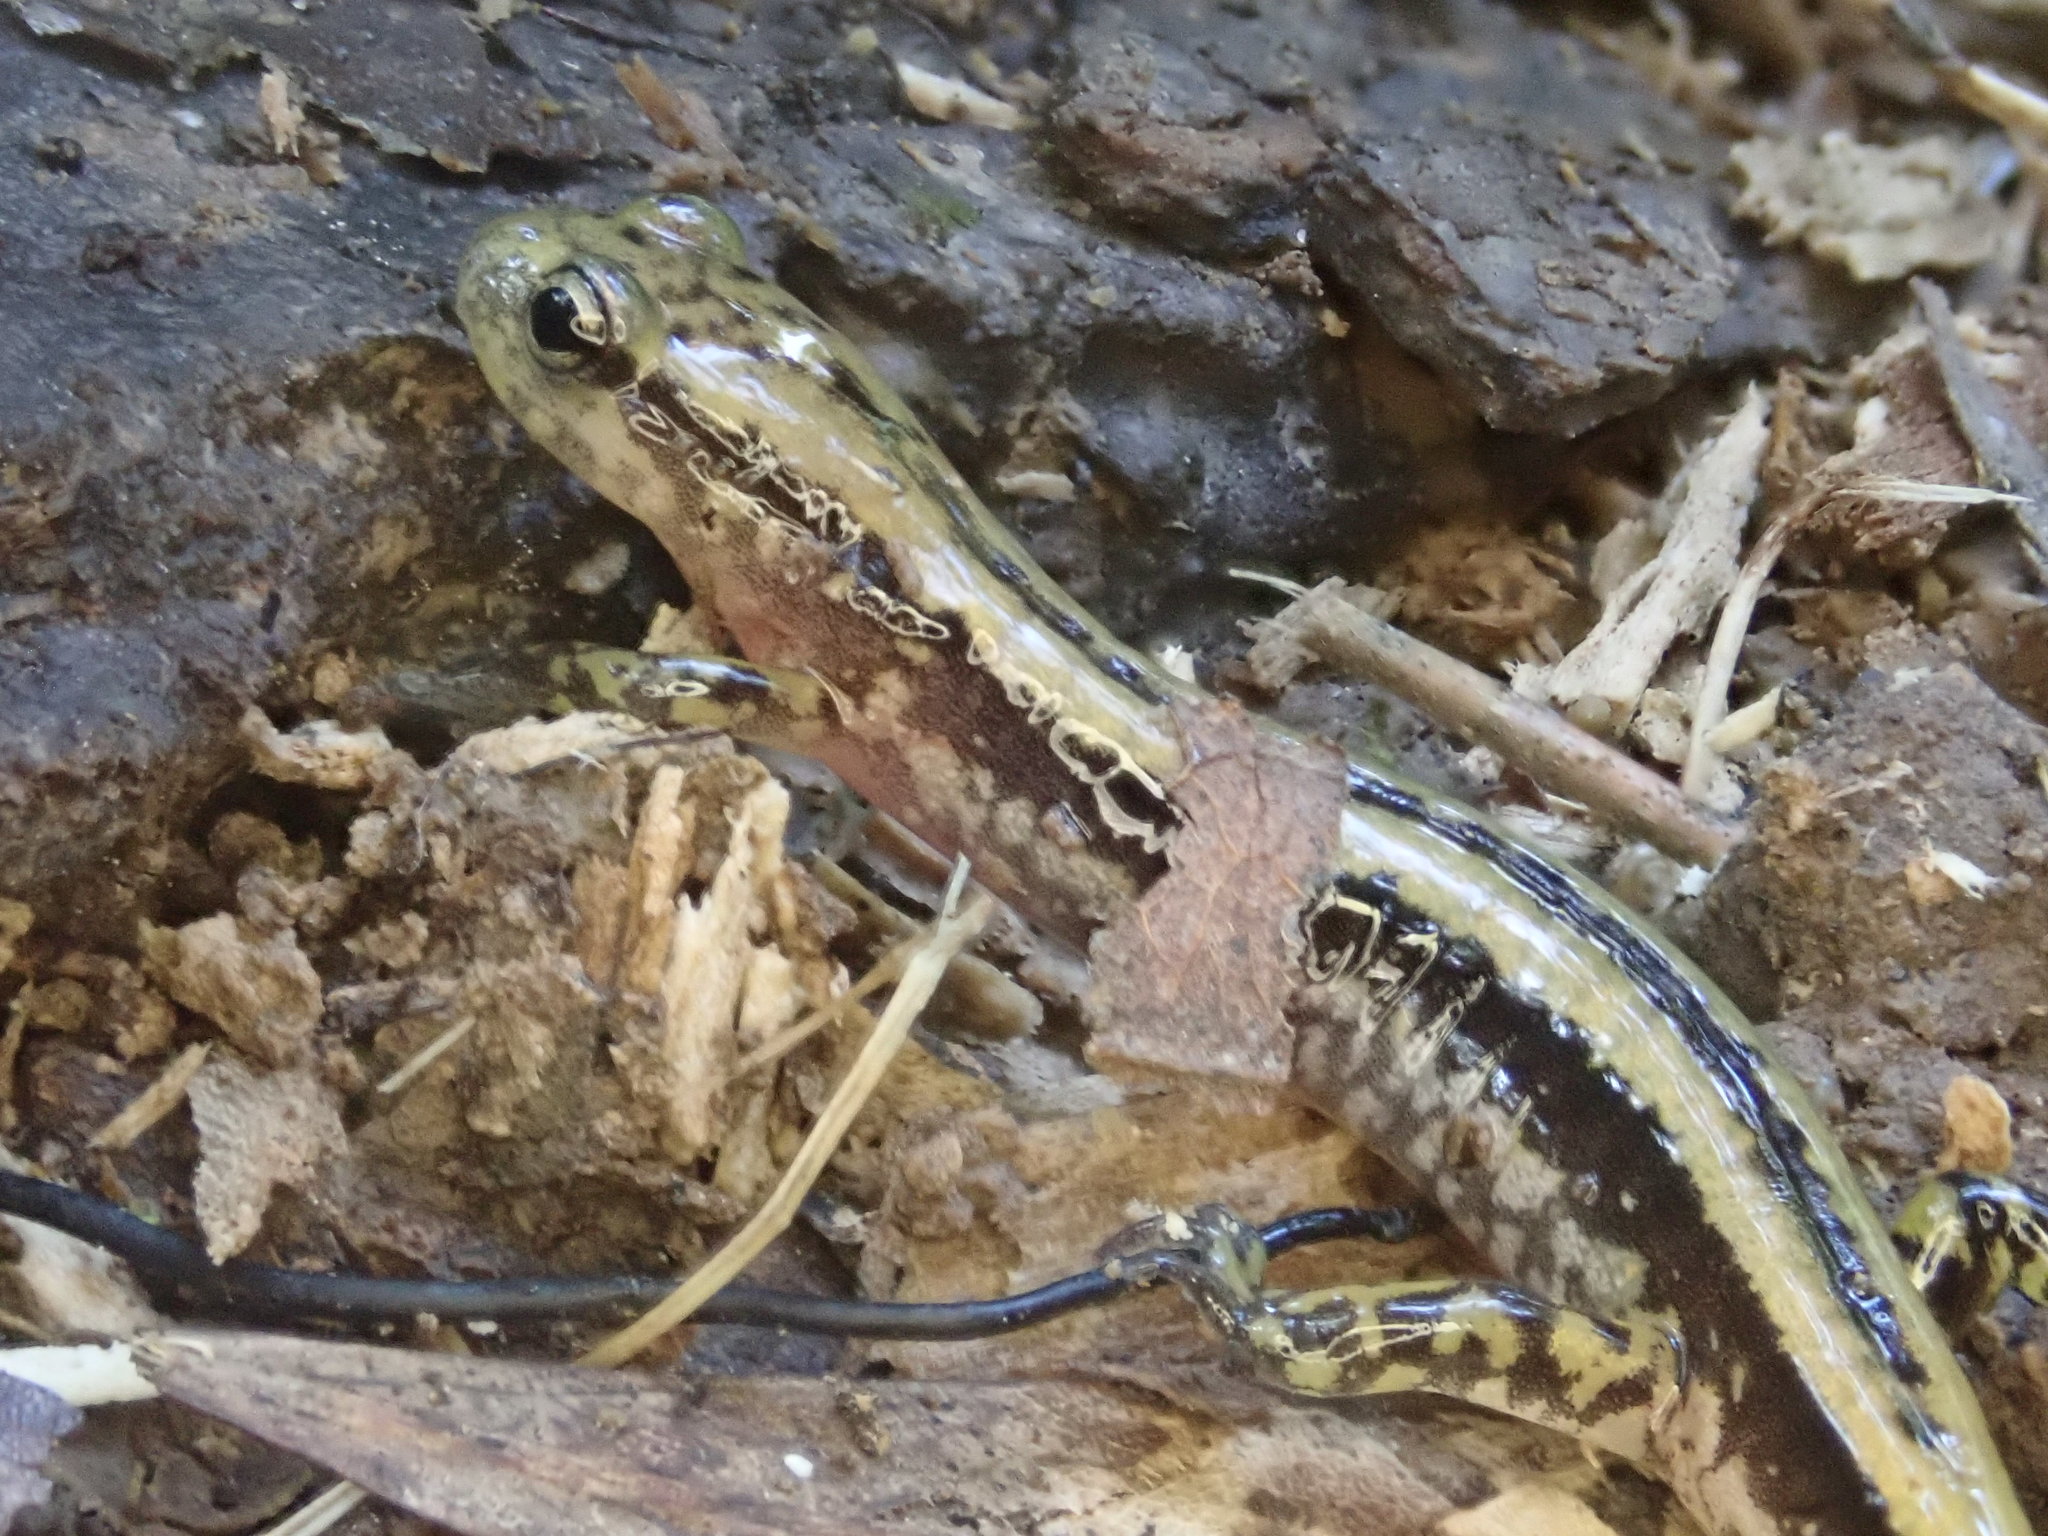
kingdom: Animalia
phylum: Chordata
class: Amphibia
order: Caudata
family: Plethodontidae
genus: Eurycea
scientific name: Eurycea guttolineata
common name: Three-lined salamander
